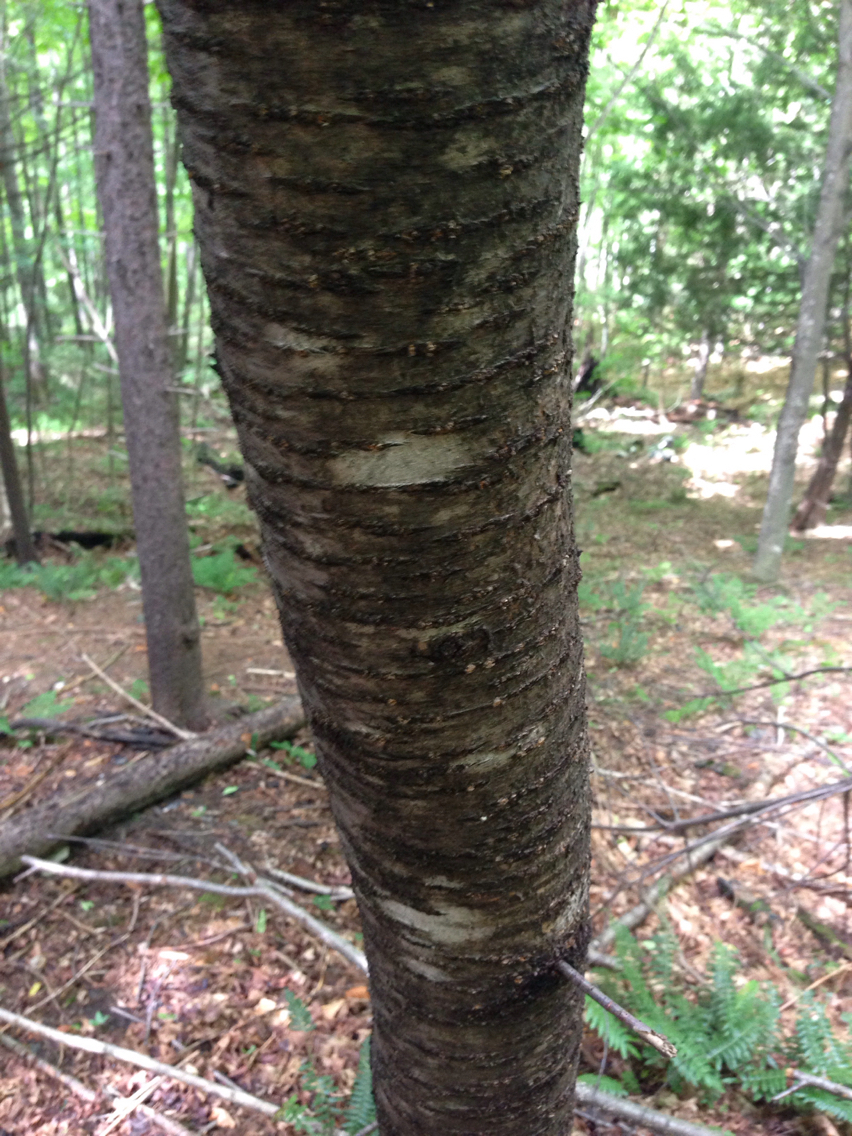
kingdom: Plantae
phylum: Tracheophyta
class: Magnoliopsida
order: Rosales
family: Rosaceae
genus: Prunus
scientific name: Prunus pensylvanica
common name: Pin cherry
